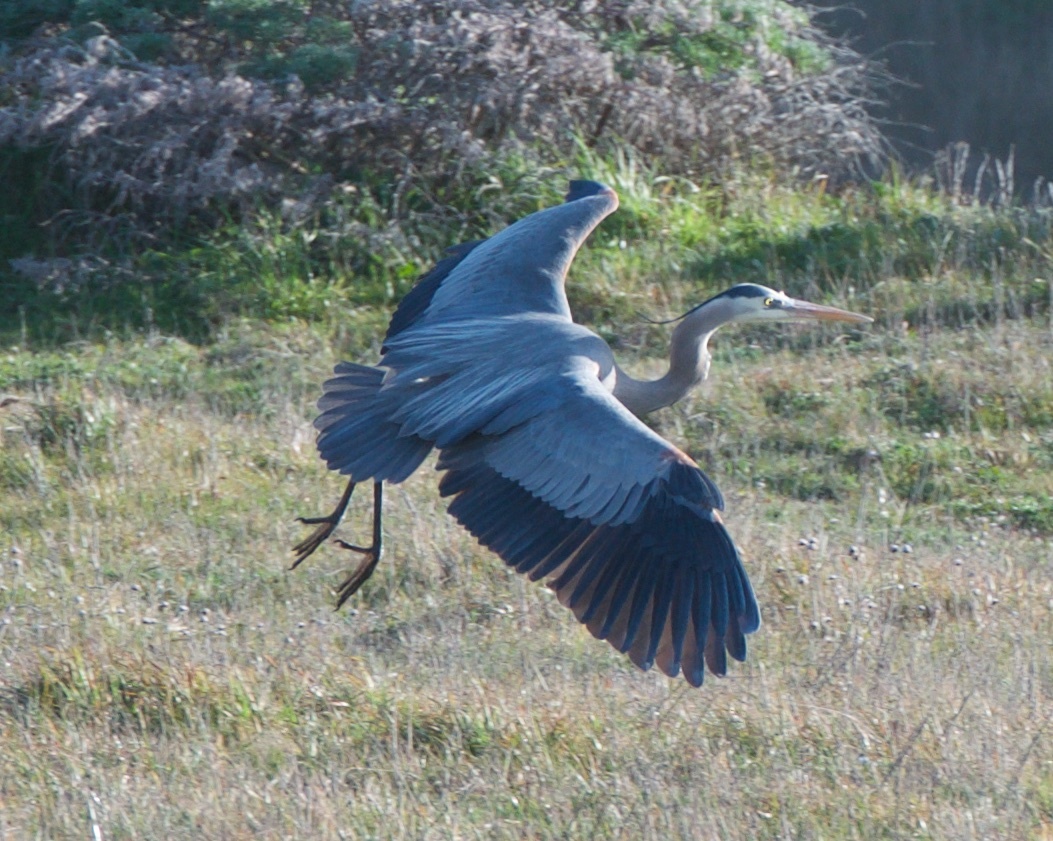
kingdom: Animalia
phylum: Chordata
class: Aves
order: Pelecaniformes
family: Ardeidae
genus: Ardea
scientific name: Ardea herodias
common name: Great blue heron
